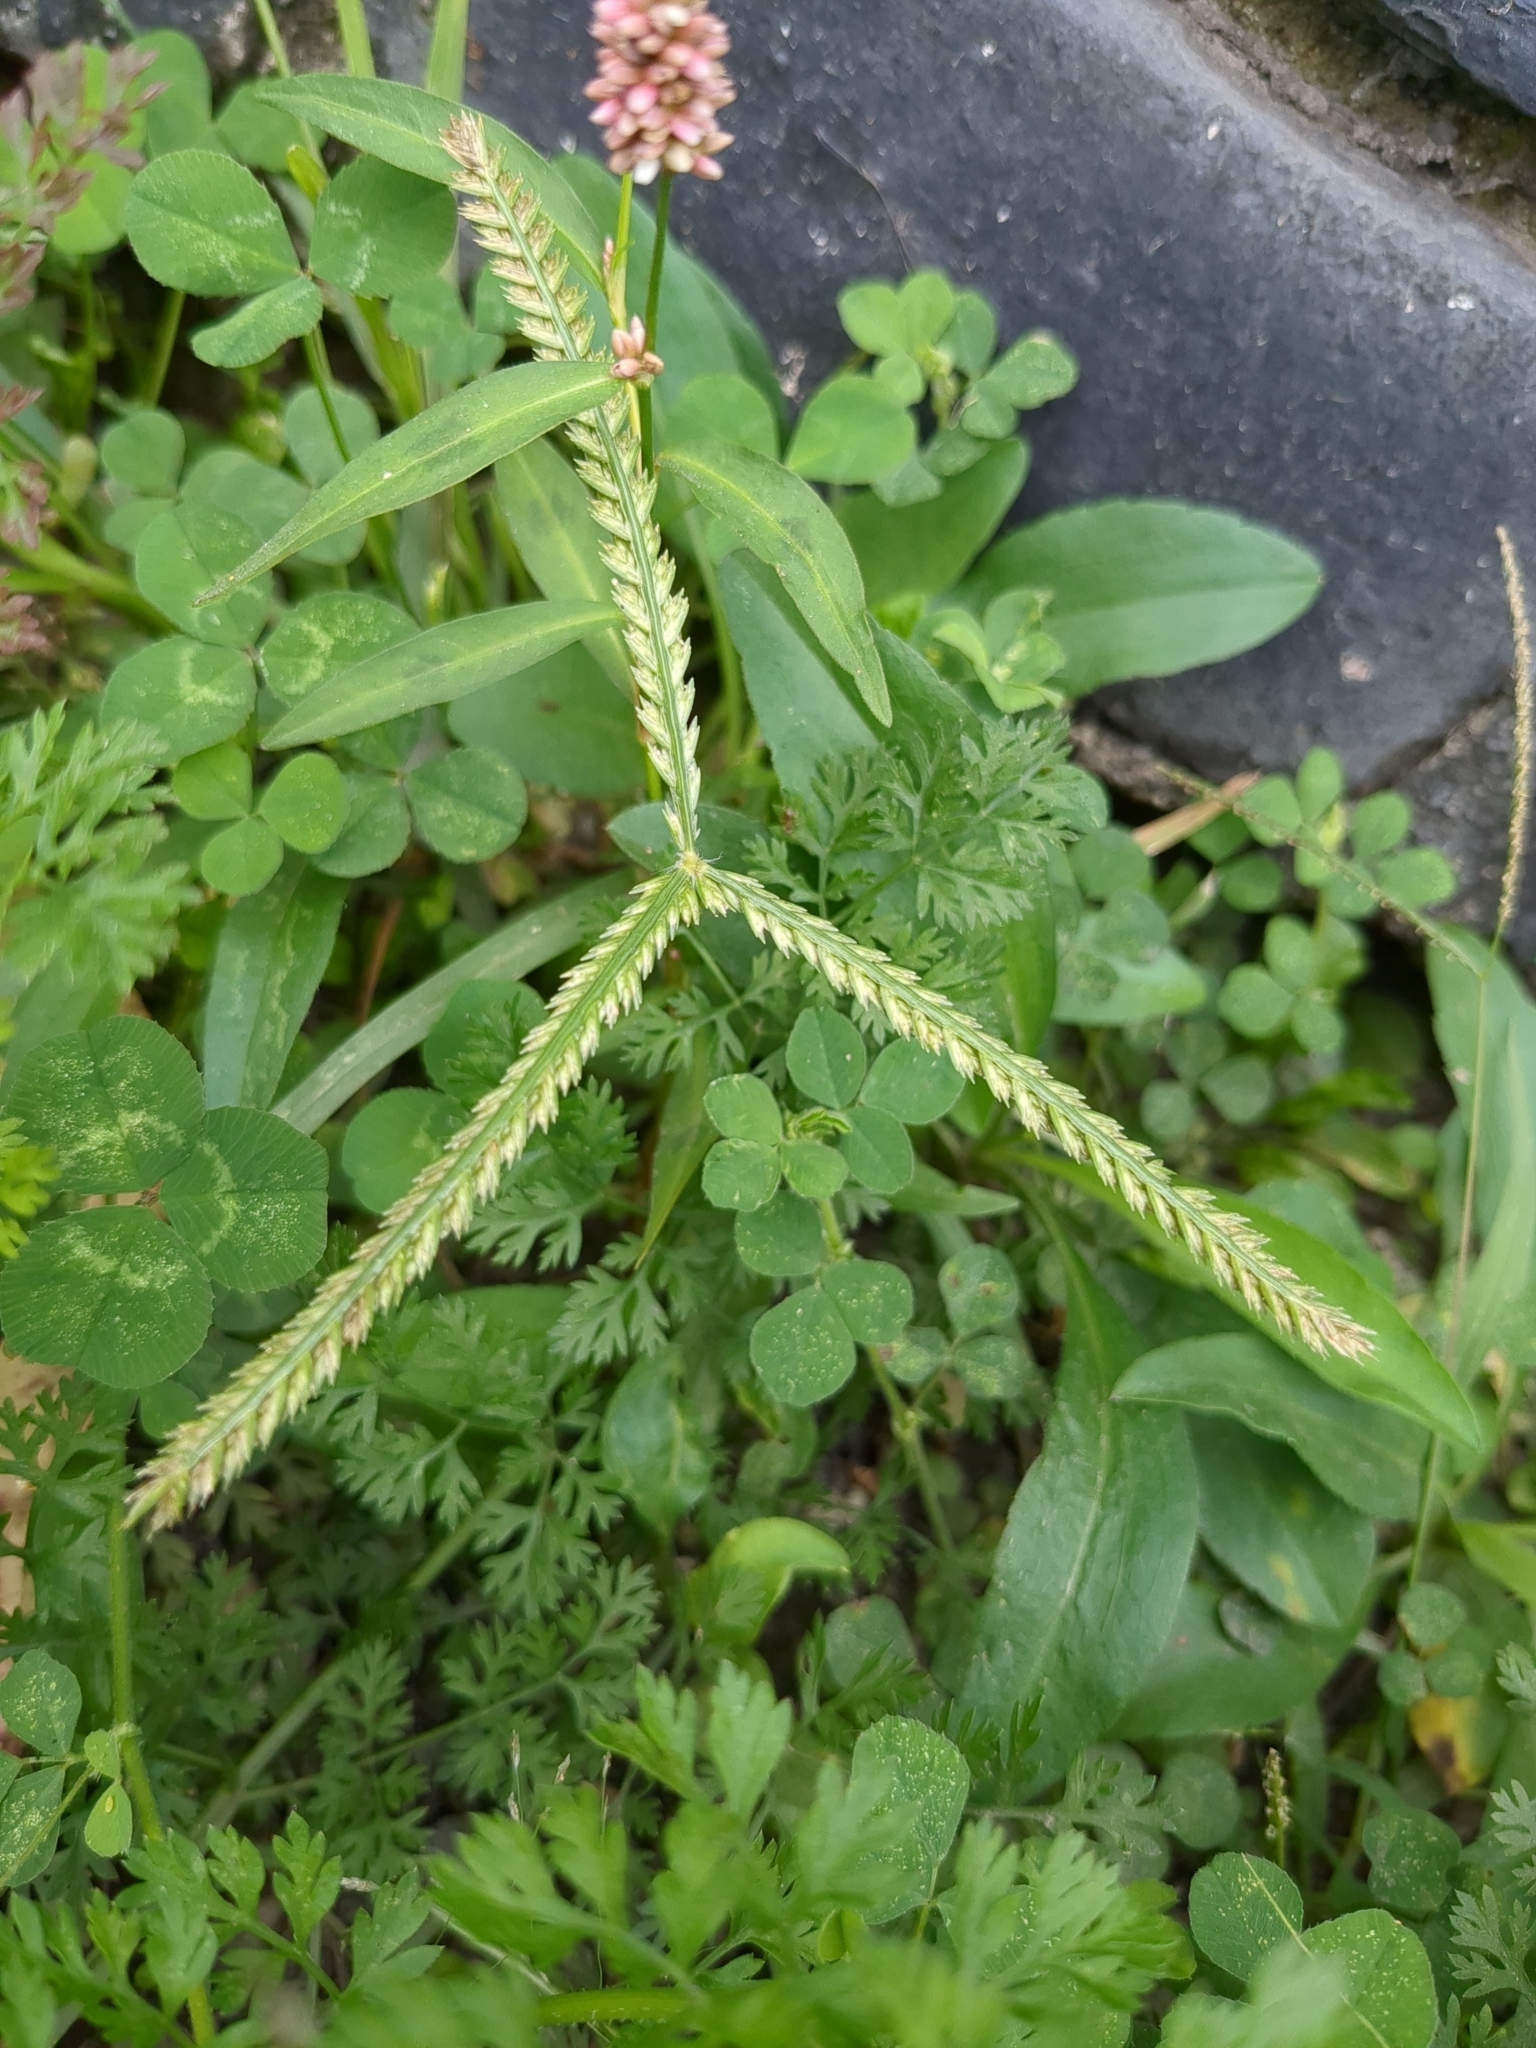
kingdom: Plantae
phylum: Tracheophyta
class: Liliopsida
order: Poales
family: Poaceae
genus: Eleusine
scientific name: Eleusine indica
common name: Yard-grass
